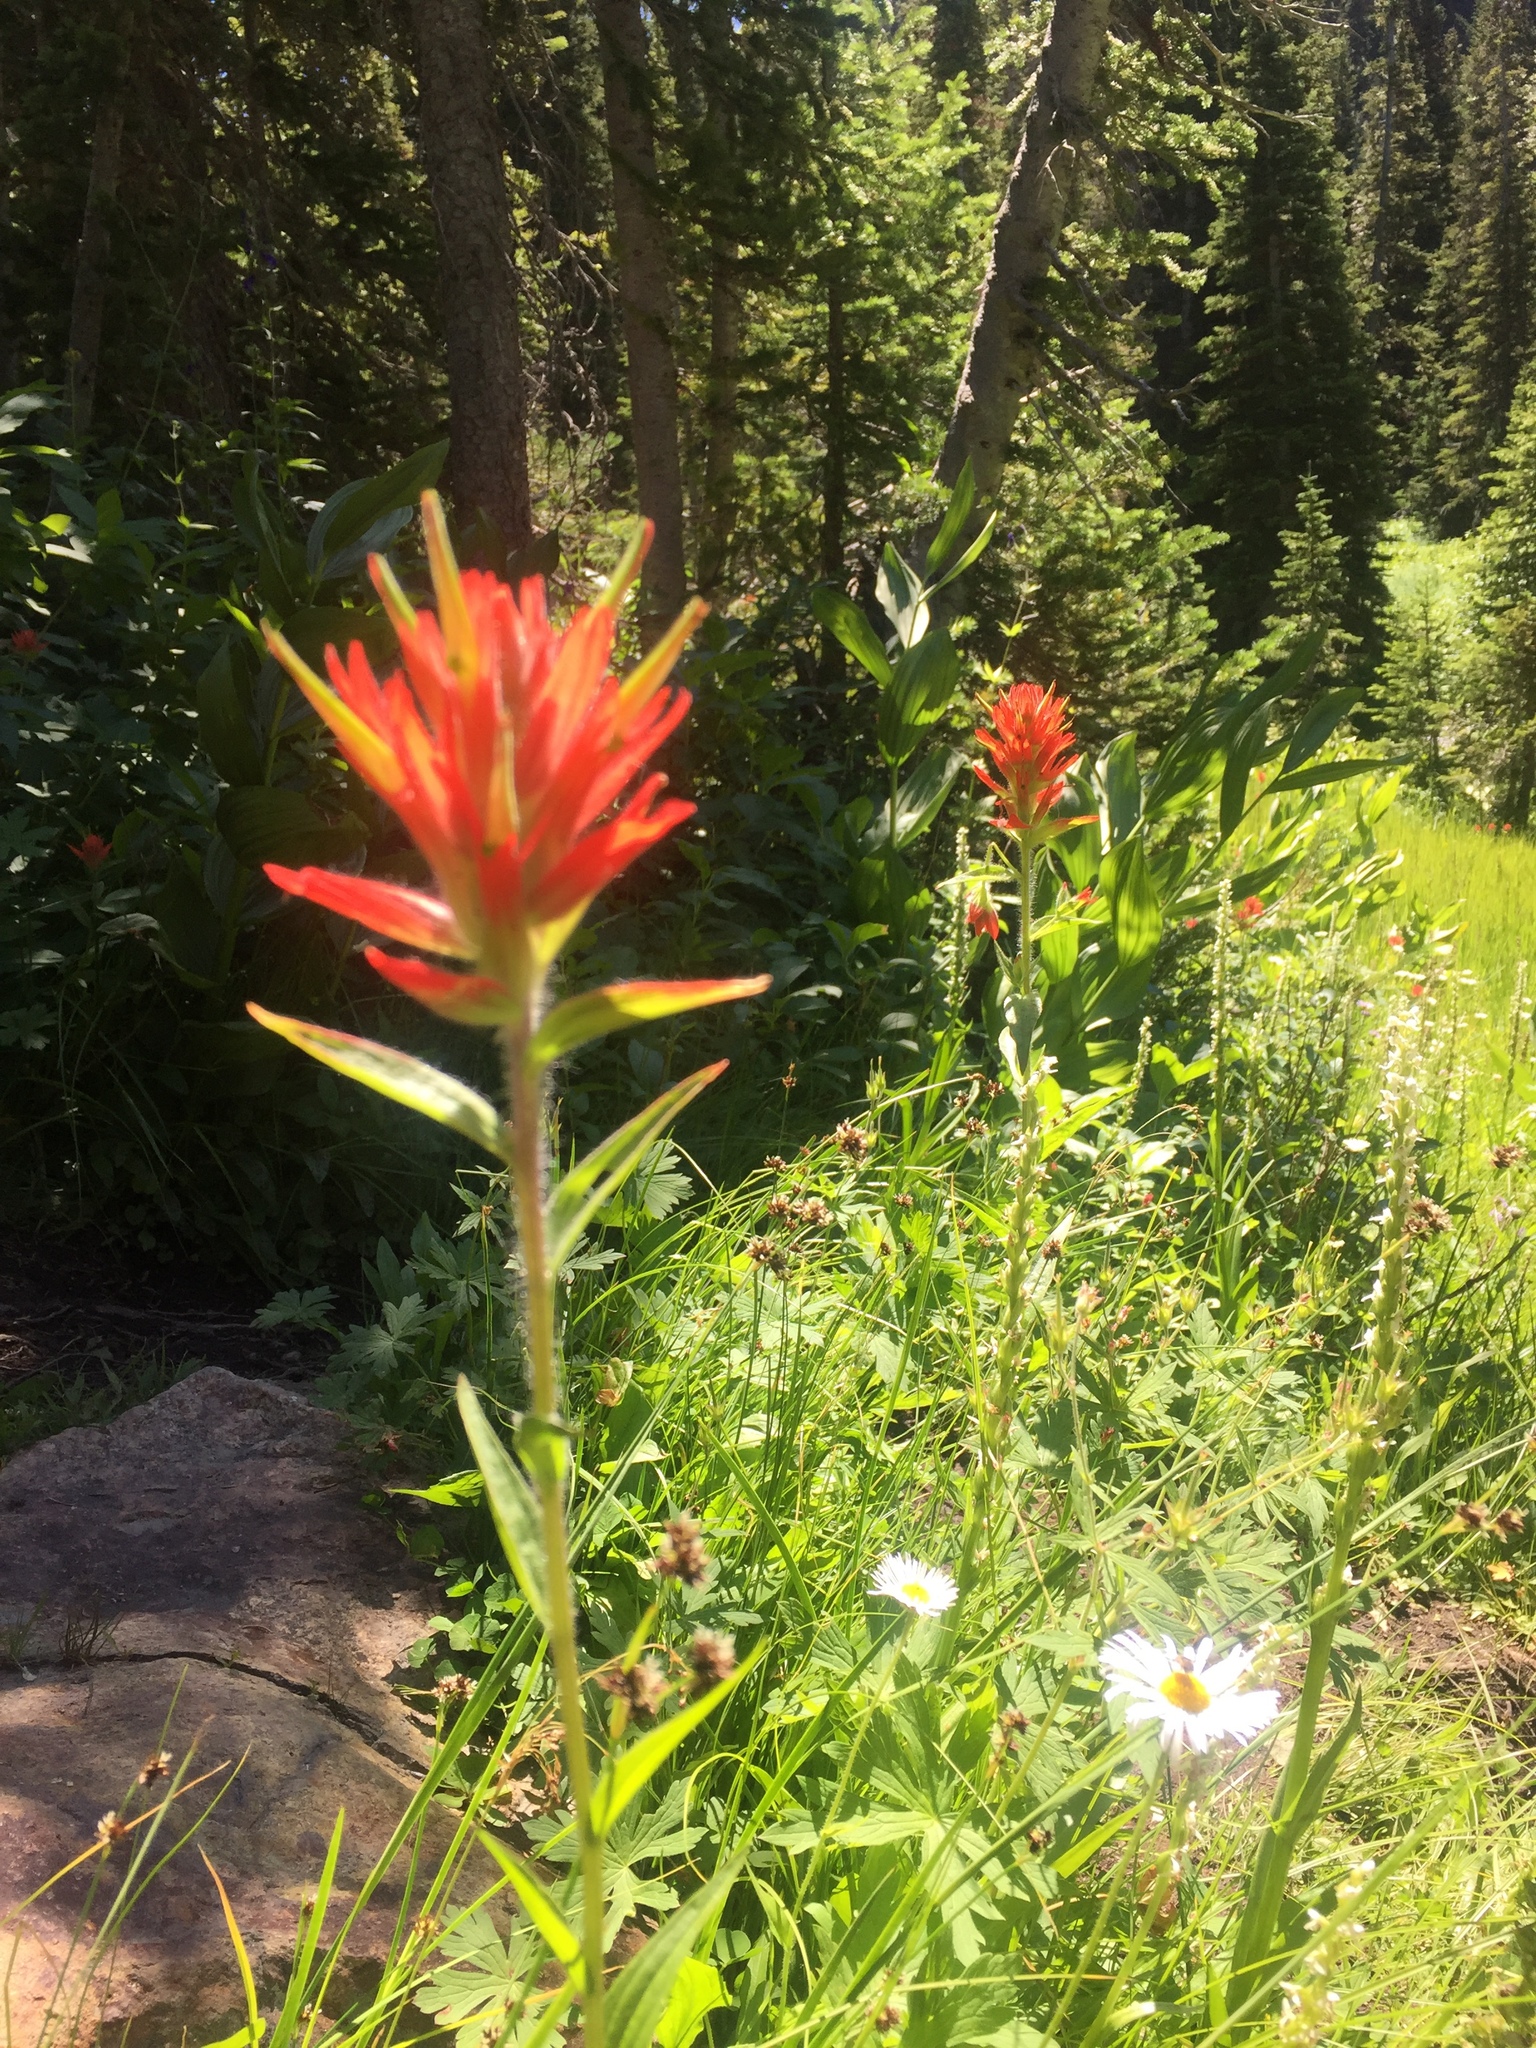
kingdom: Plantae
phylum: Tracheophyta
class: Magnoliopsida
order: Lamiales
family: Orobanchaceae
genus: Castilleja
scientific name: Castilleja miniata
